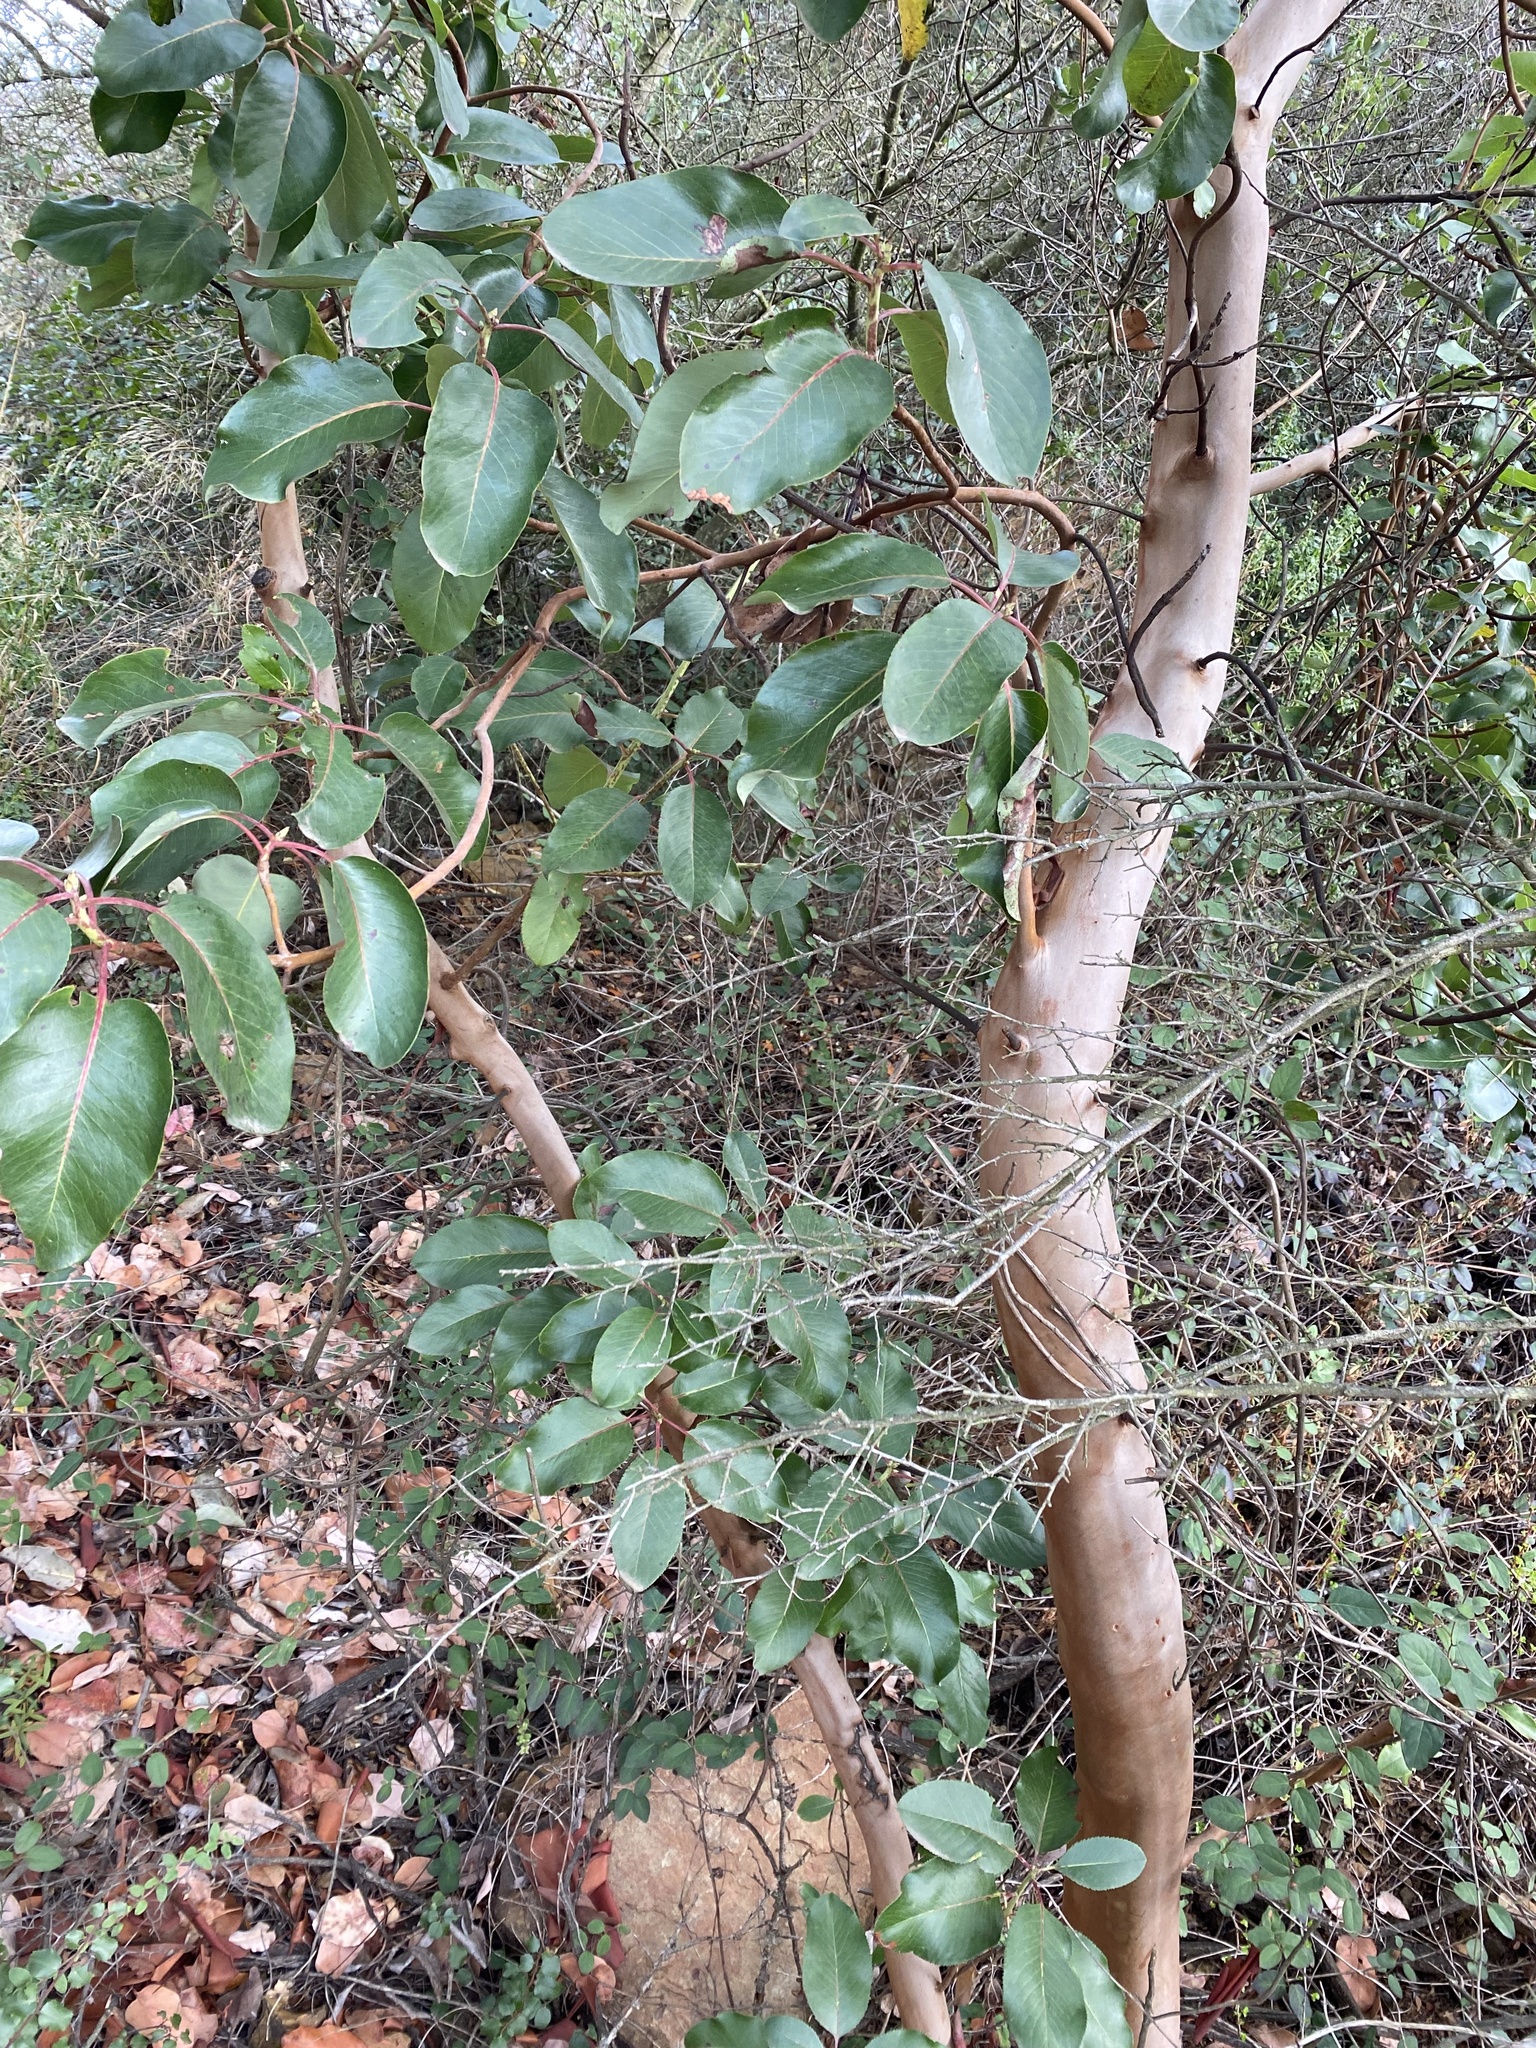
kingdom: Plantae
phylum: Tracheophyta
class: Magnoliopsida
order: Ericales
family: Ericaceae
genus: Arbutus
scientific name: Arbutus menziesii
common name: Pacific madrone
